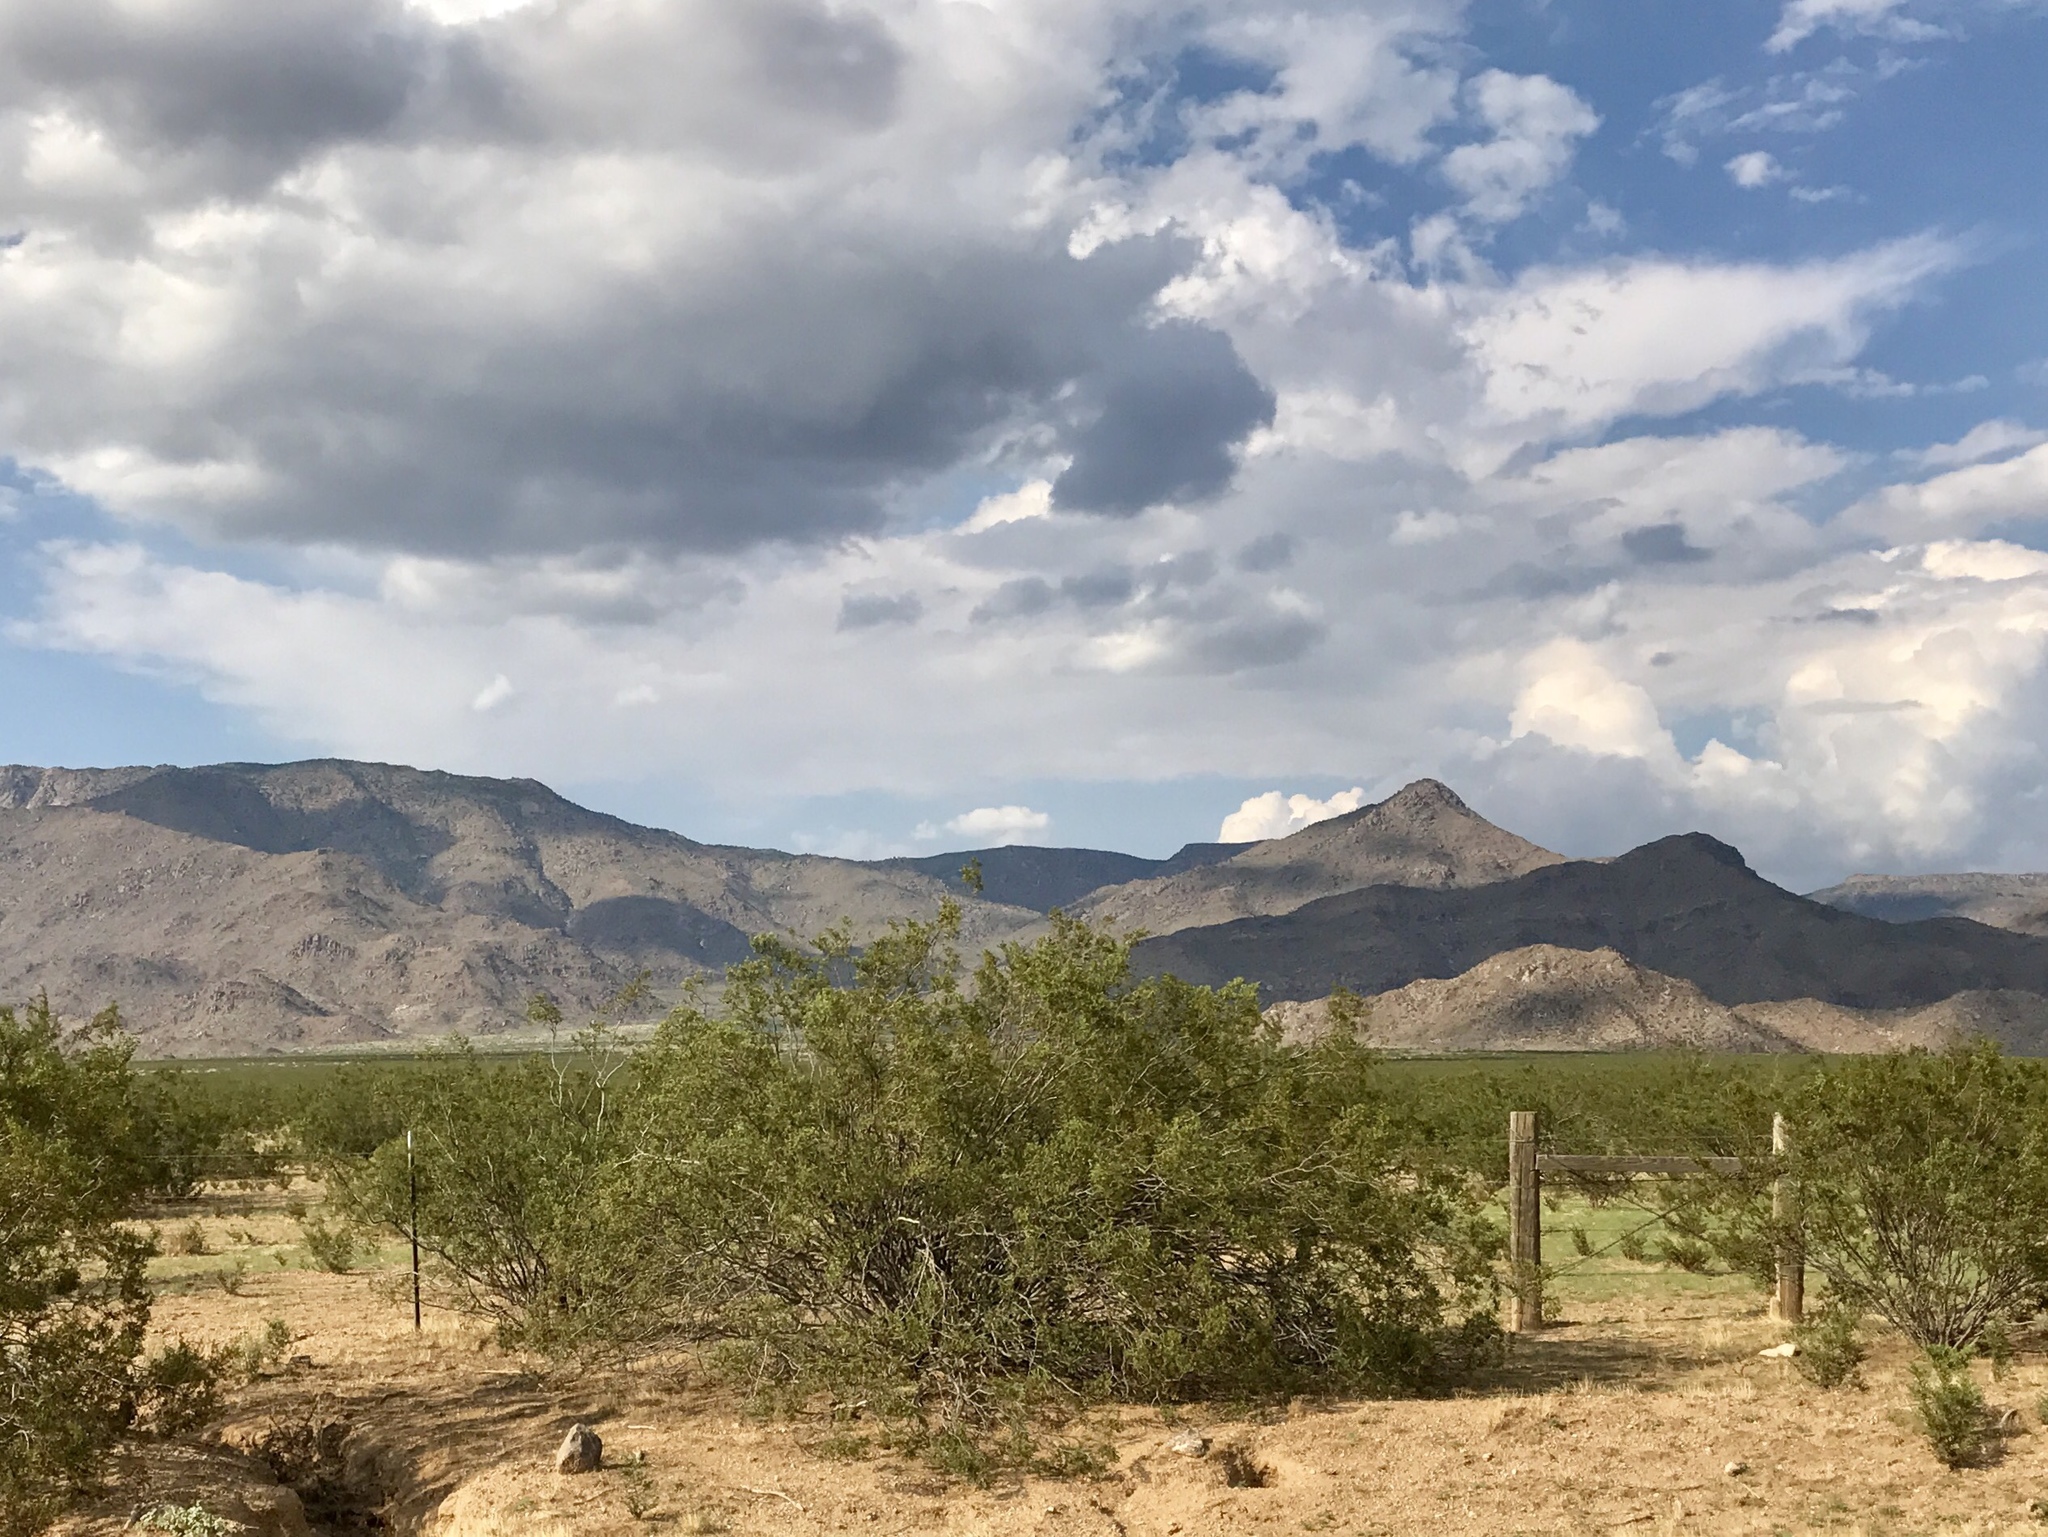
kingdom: Plantae
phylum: Tracheophyta
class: Magnoliopsida
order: Zygophyllales
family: Zygophyllaceae
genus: Larrea
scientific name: Larrea tridentata
